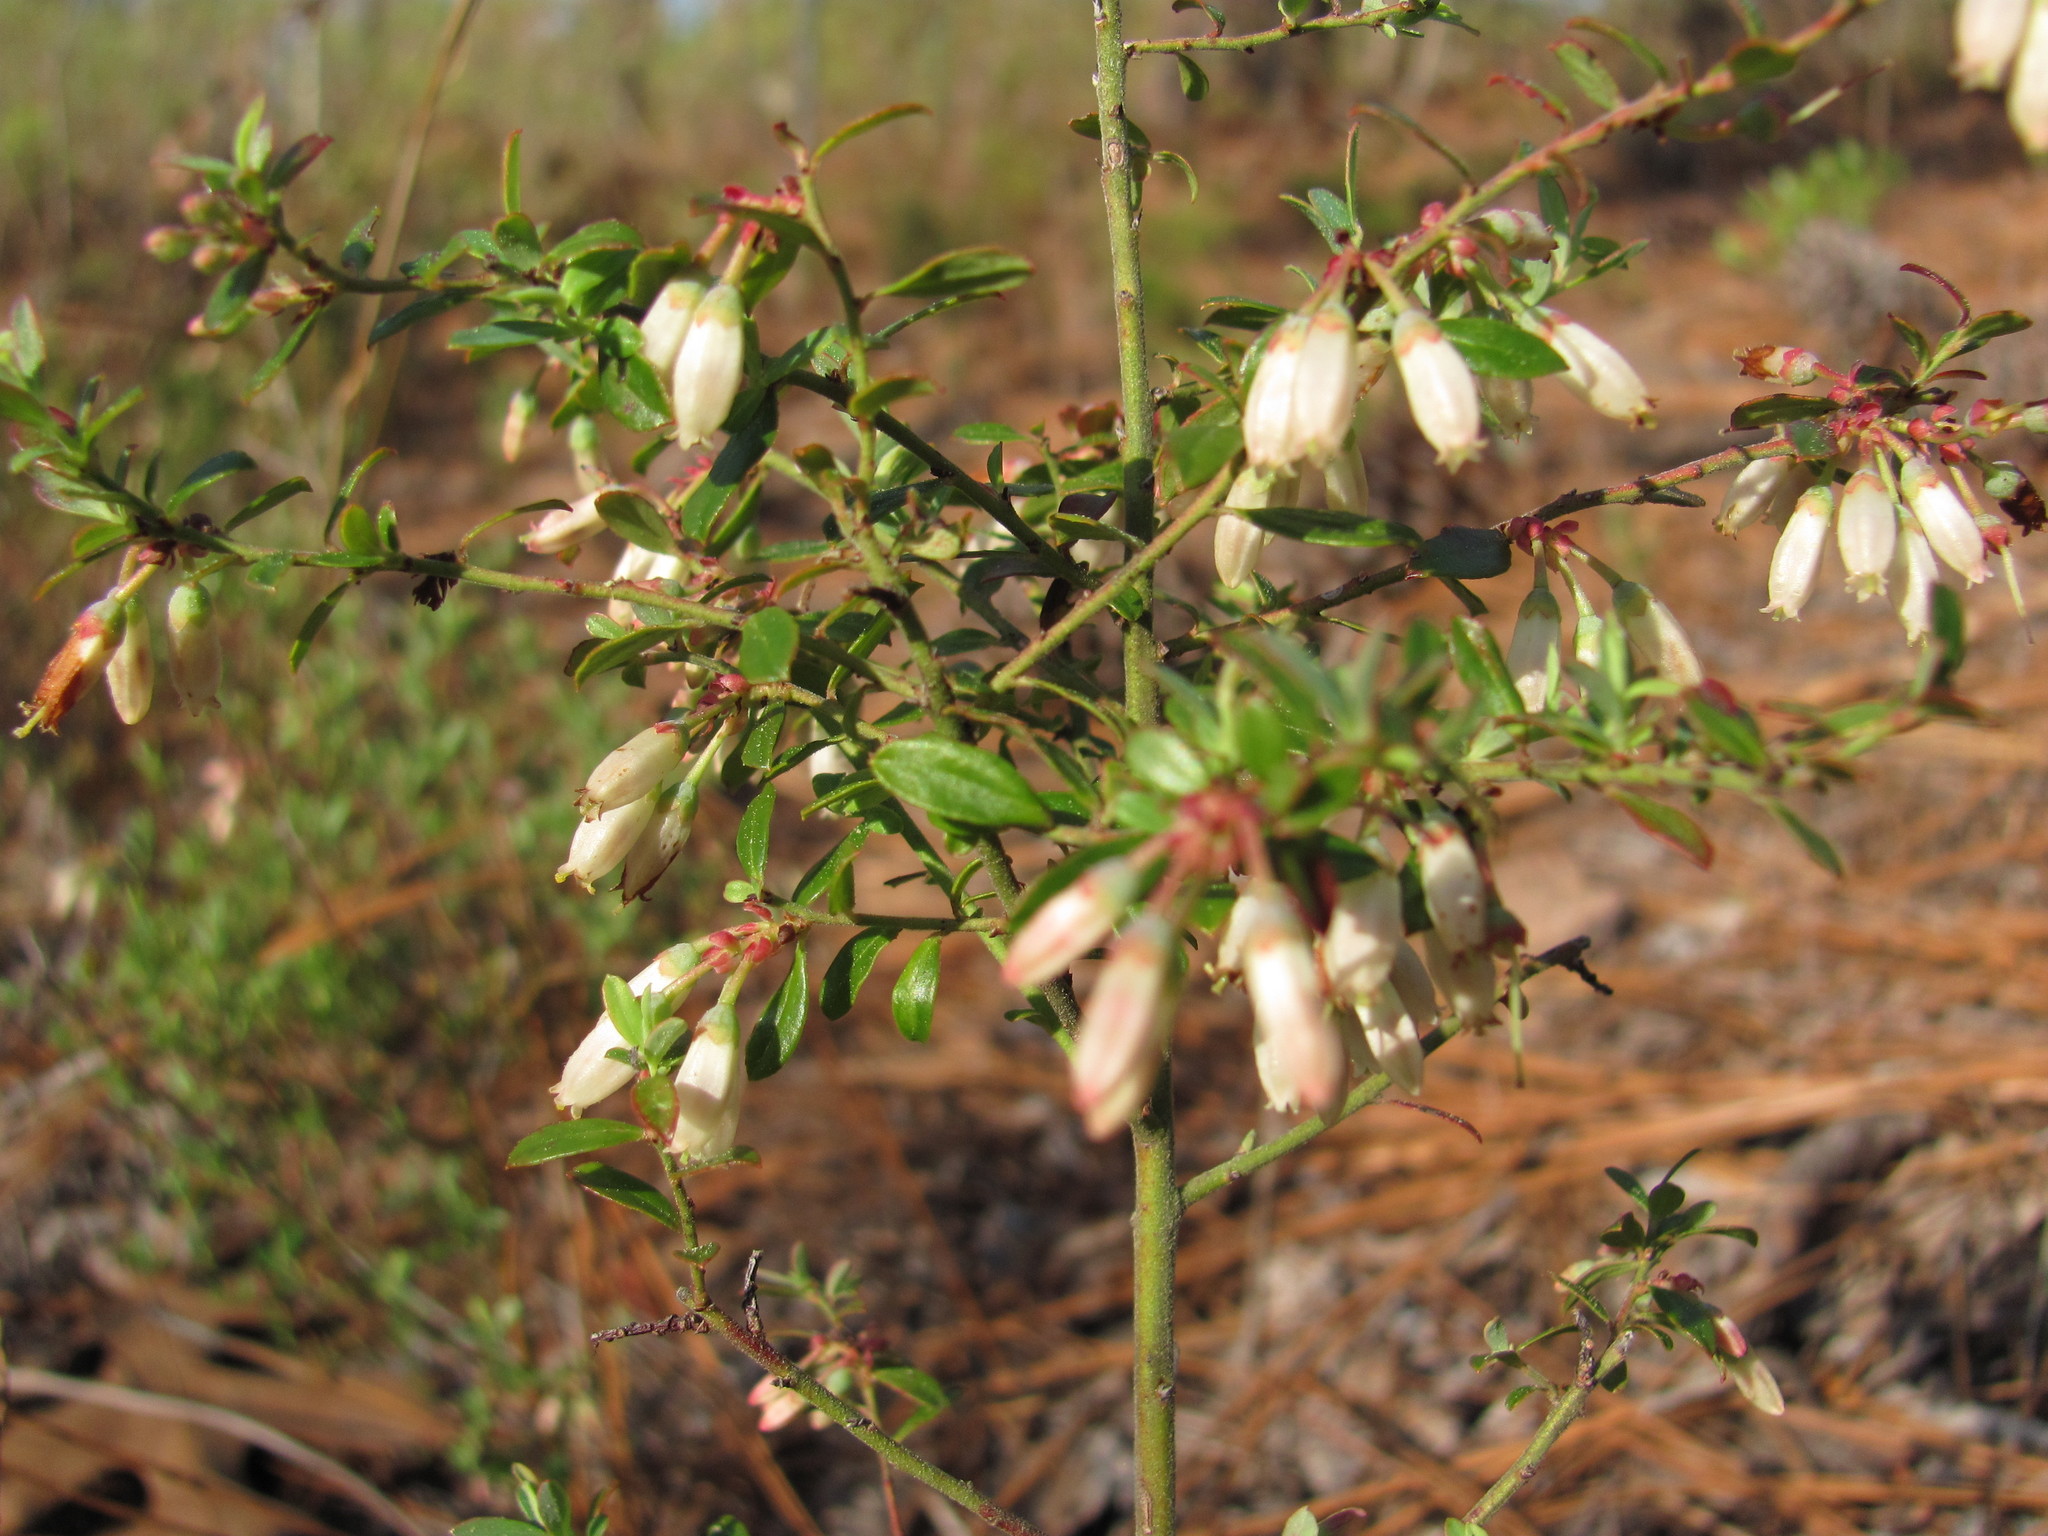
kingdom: Plantae
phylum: Tracheophyta
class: Magnoliopsida
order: Ericales
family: Ericaceae
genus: Vaccinium
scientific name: Vaccinium darrowii
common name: Darrow's blueberry
